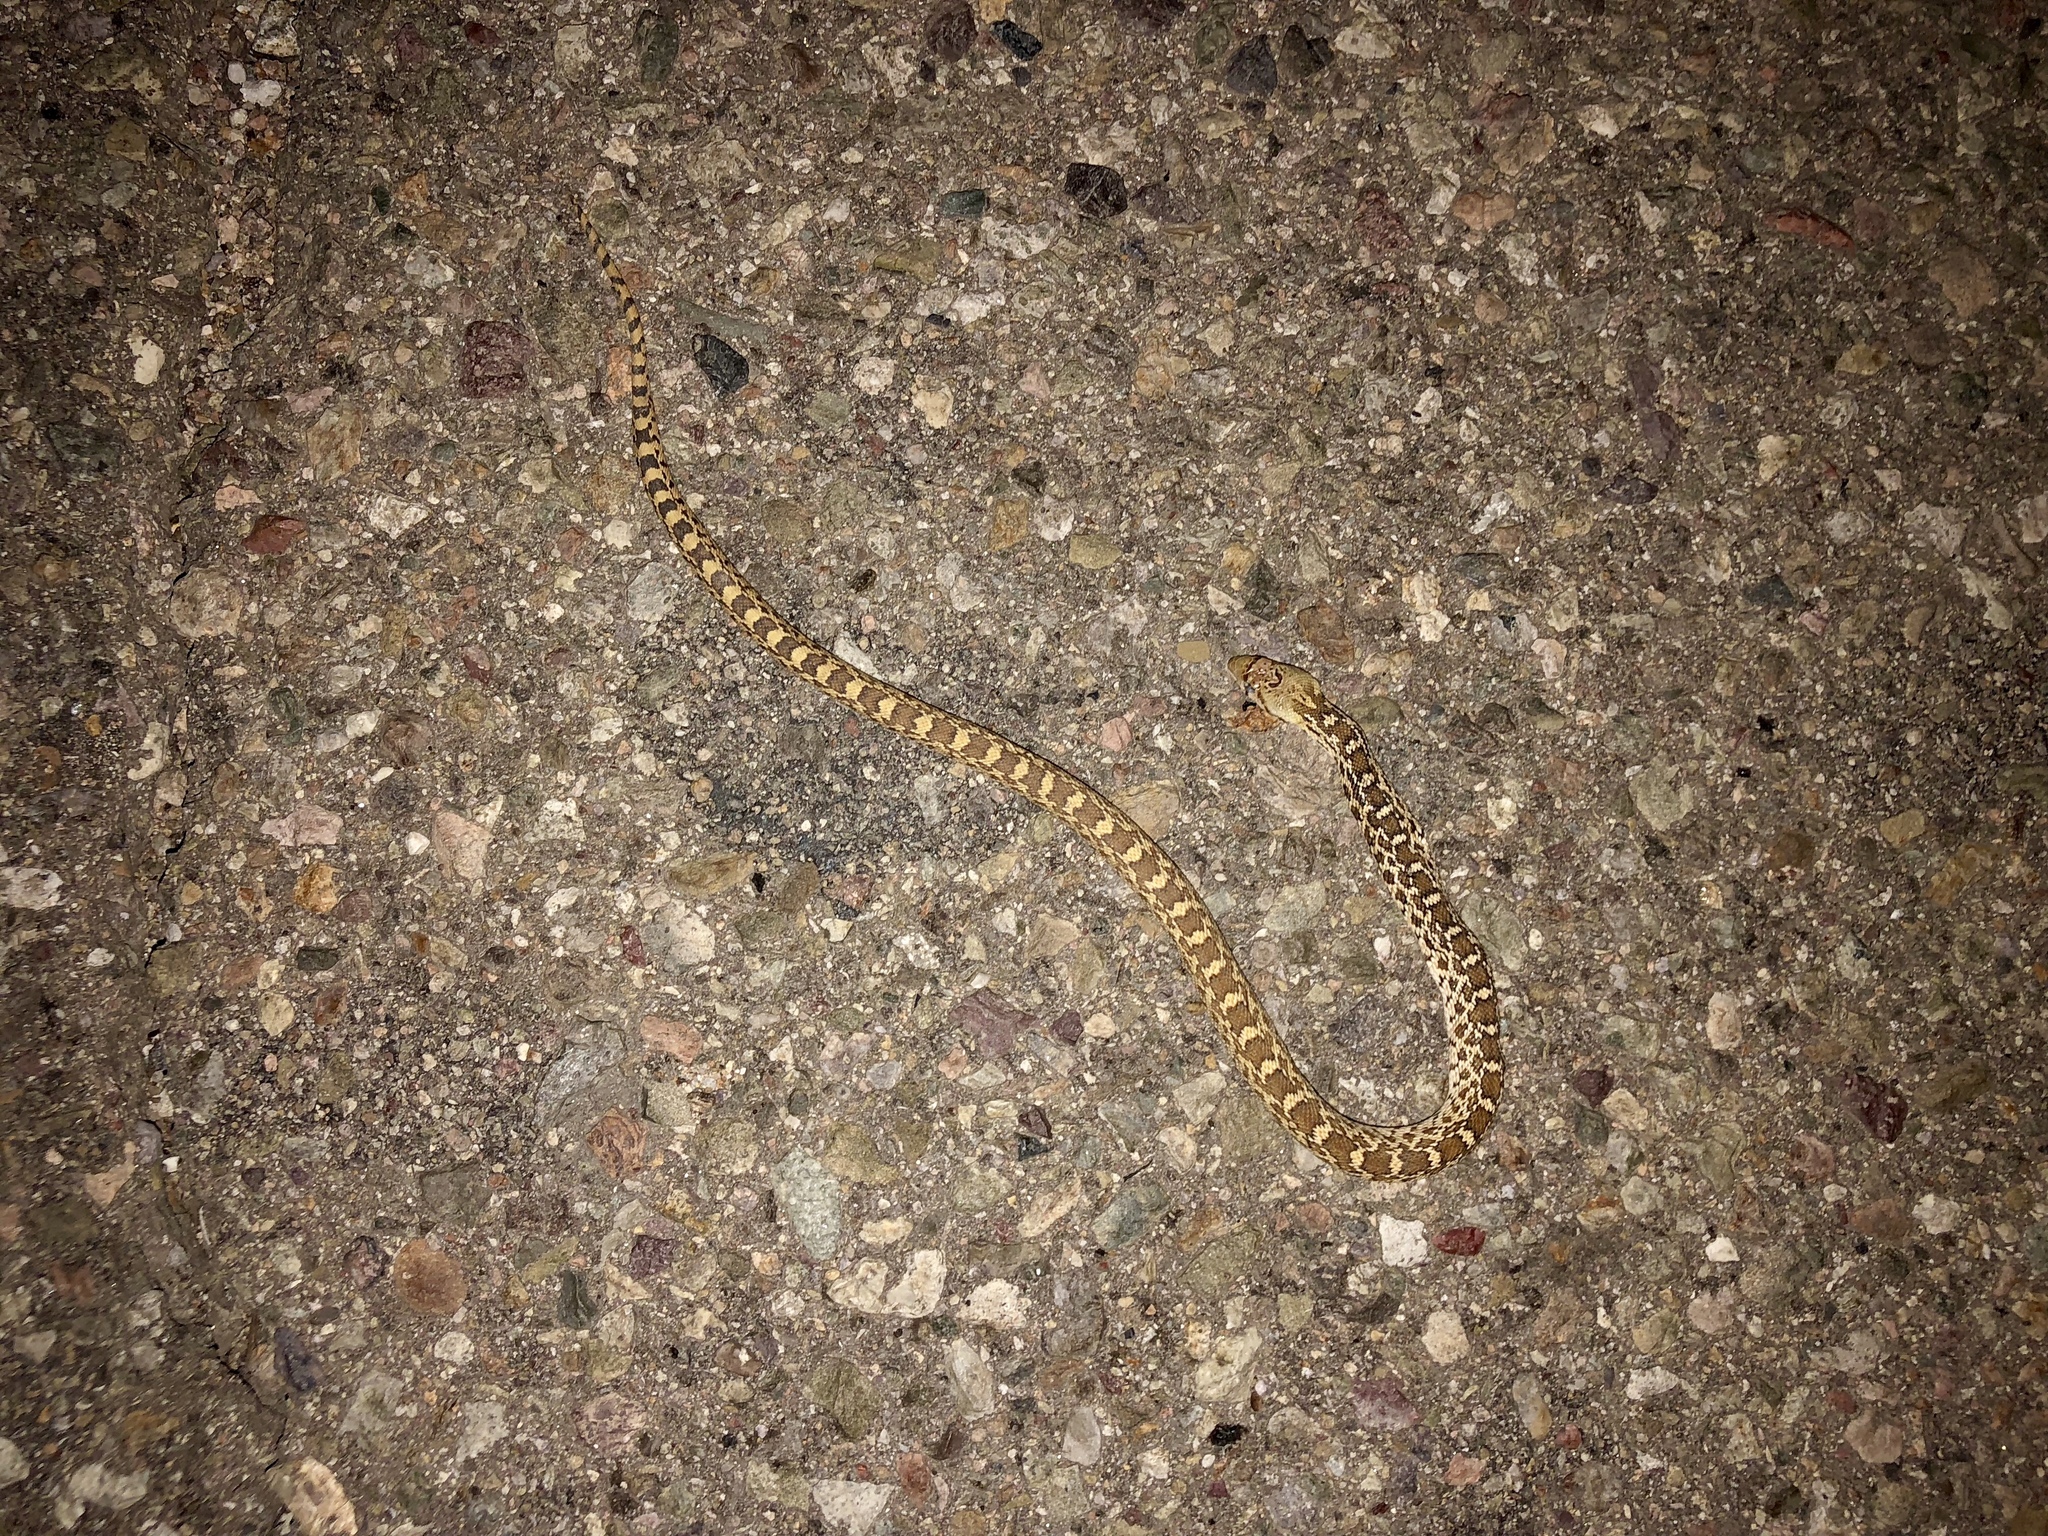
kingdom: Animalia
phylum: Chordata
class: Squamata
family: Colubridae
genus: Pituophis
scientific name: Pituophis catenifer
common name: Gopher snake
